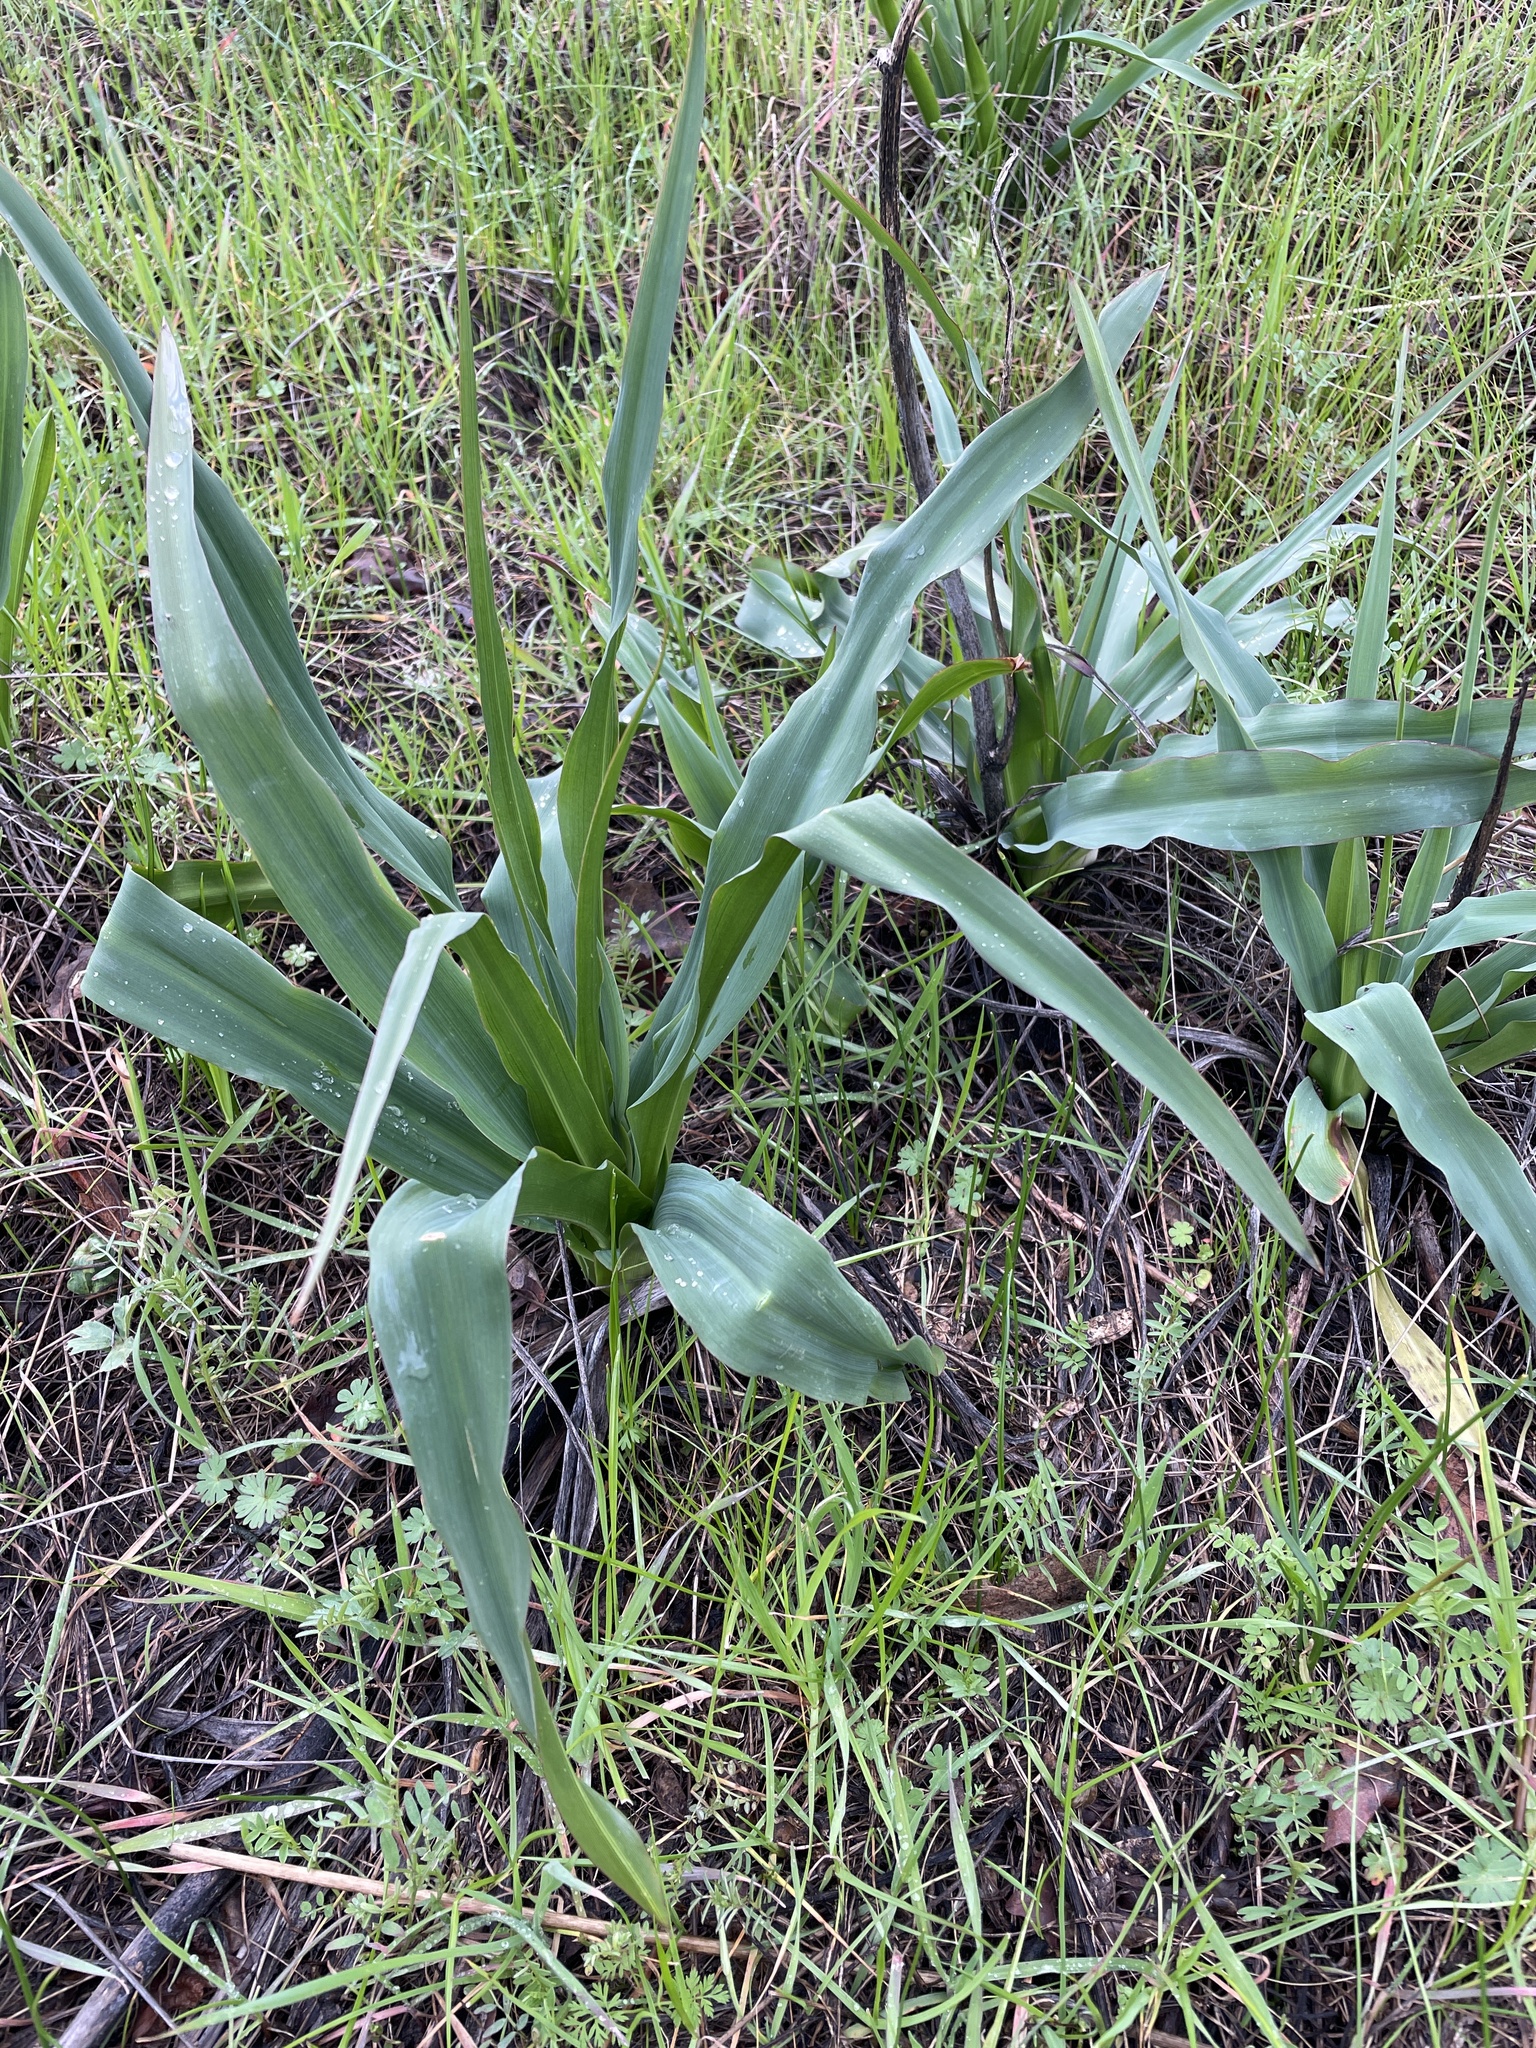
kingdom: Plantae
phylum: Tracheophyta
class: Liliopsida
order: Asparagales
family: Asparagaceae
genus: Chlorogalum
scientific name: Chlorogalum pomeridianum
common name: Amole
